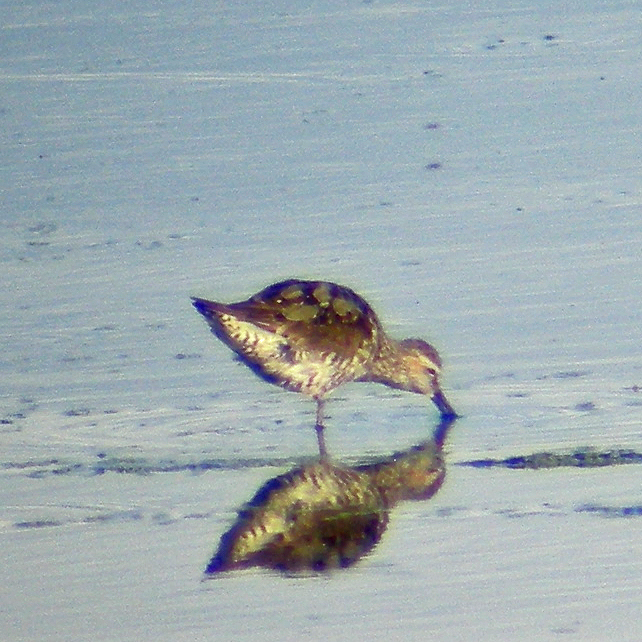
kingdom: Animalia
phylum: Chordata
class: Aves
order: Charadriiformes
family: Scolopacidae
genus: Calidris
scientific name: Calidris himantopus
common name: Stilt sandpiper
